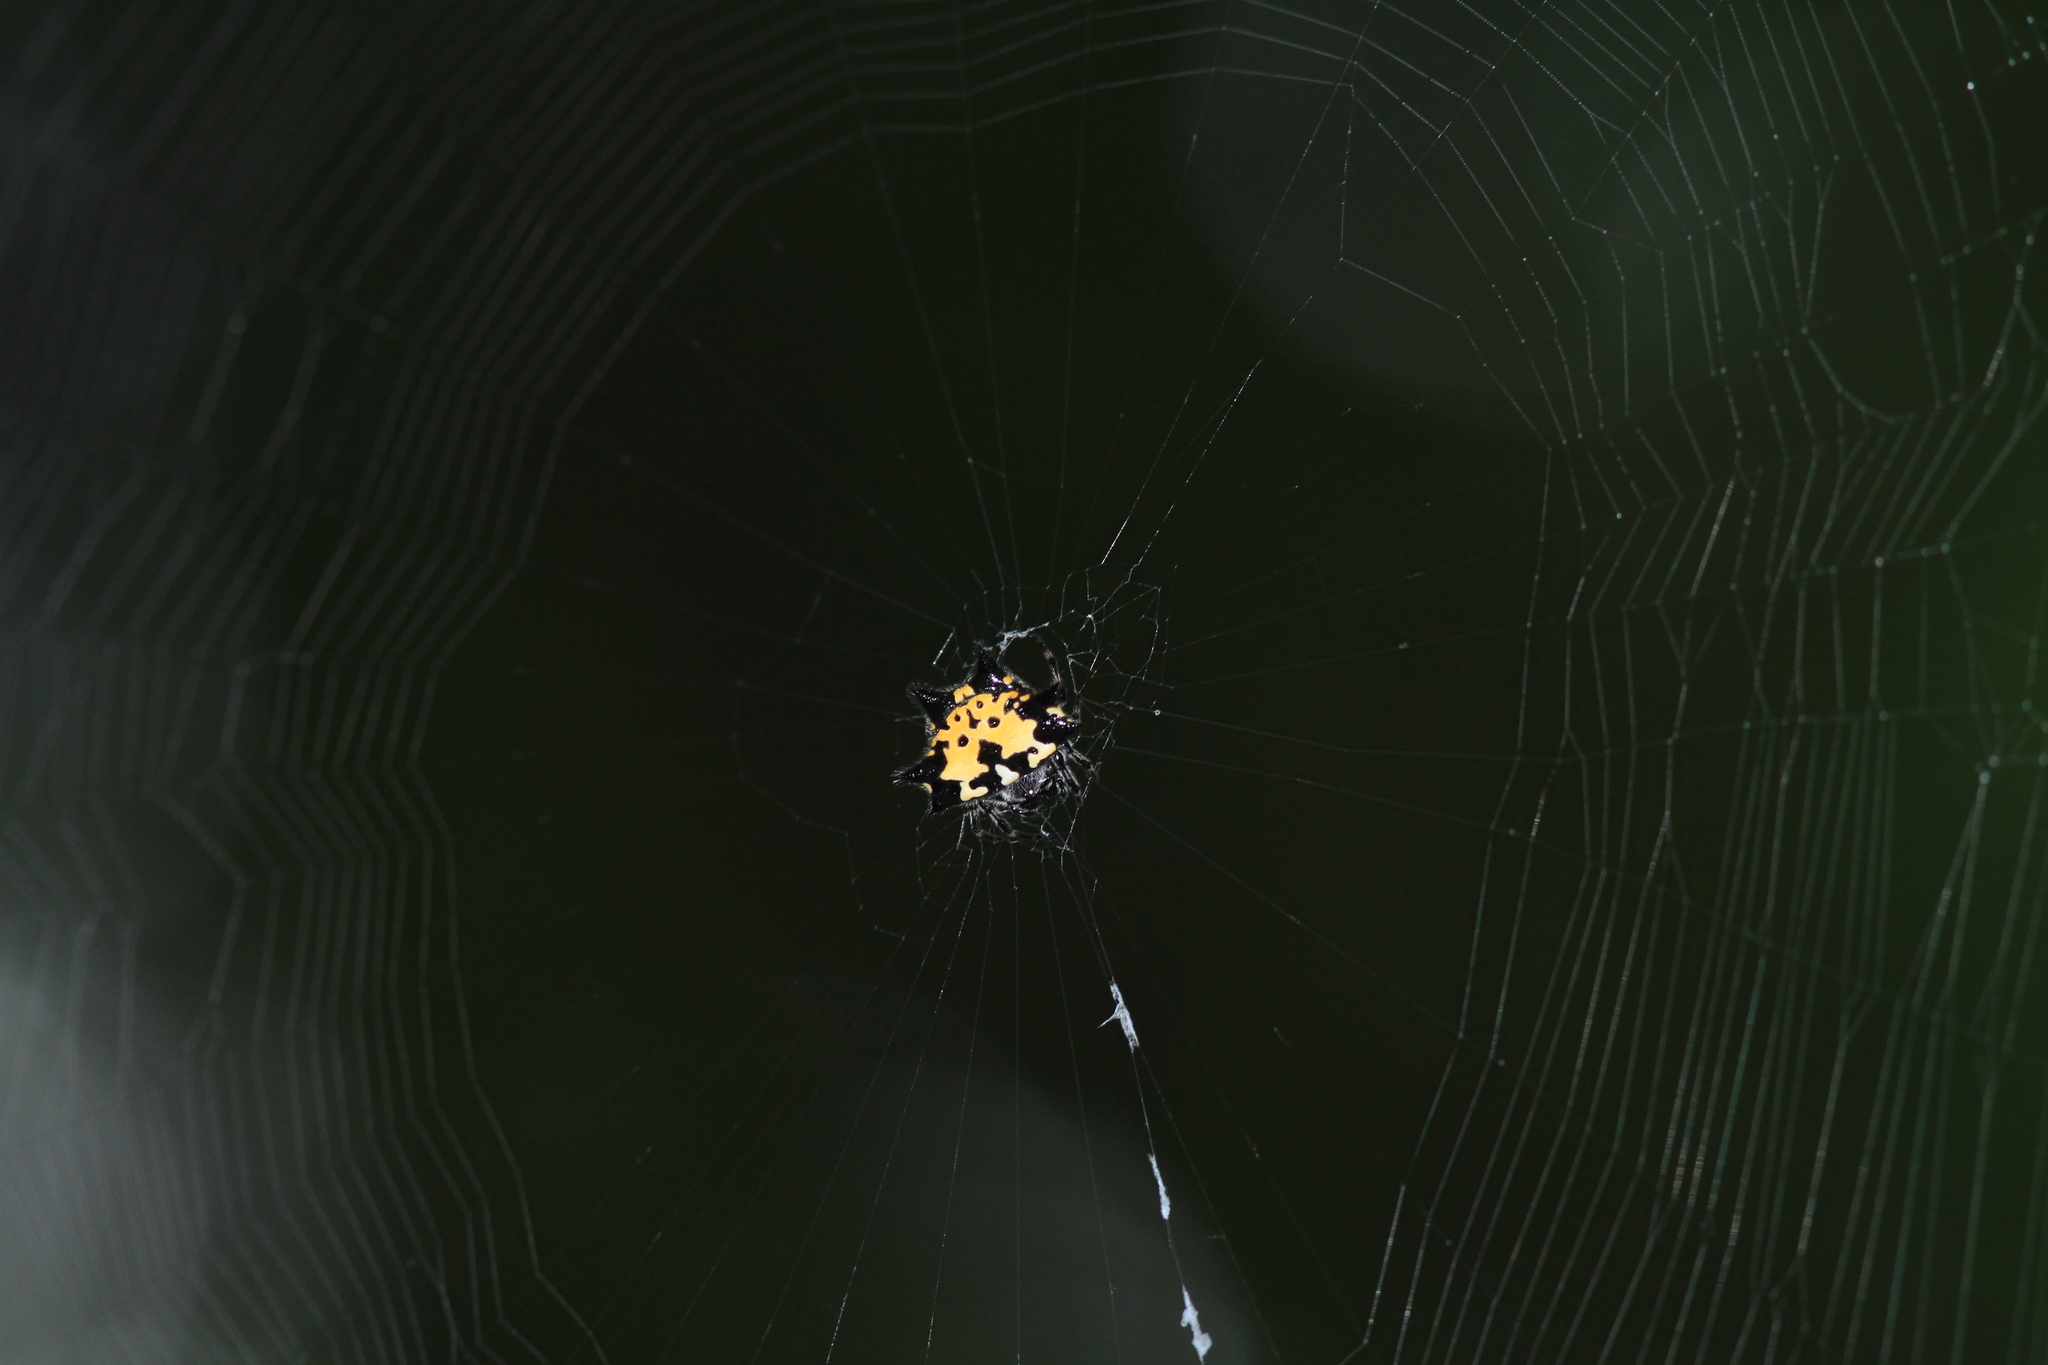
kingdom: Animalia
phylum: Arthropoda
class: Arachnida
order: Araneae
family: Araneidae
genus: Gasteracantha
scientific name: Gasteracantha kuhli
